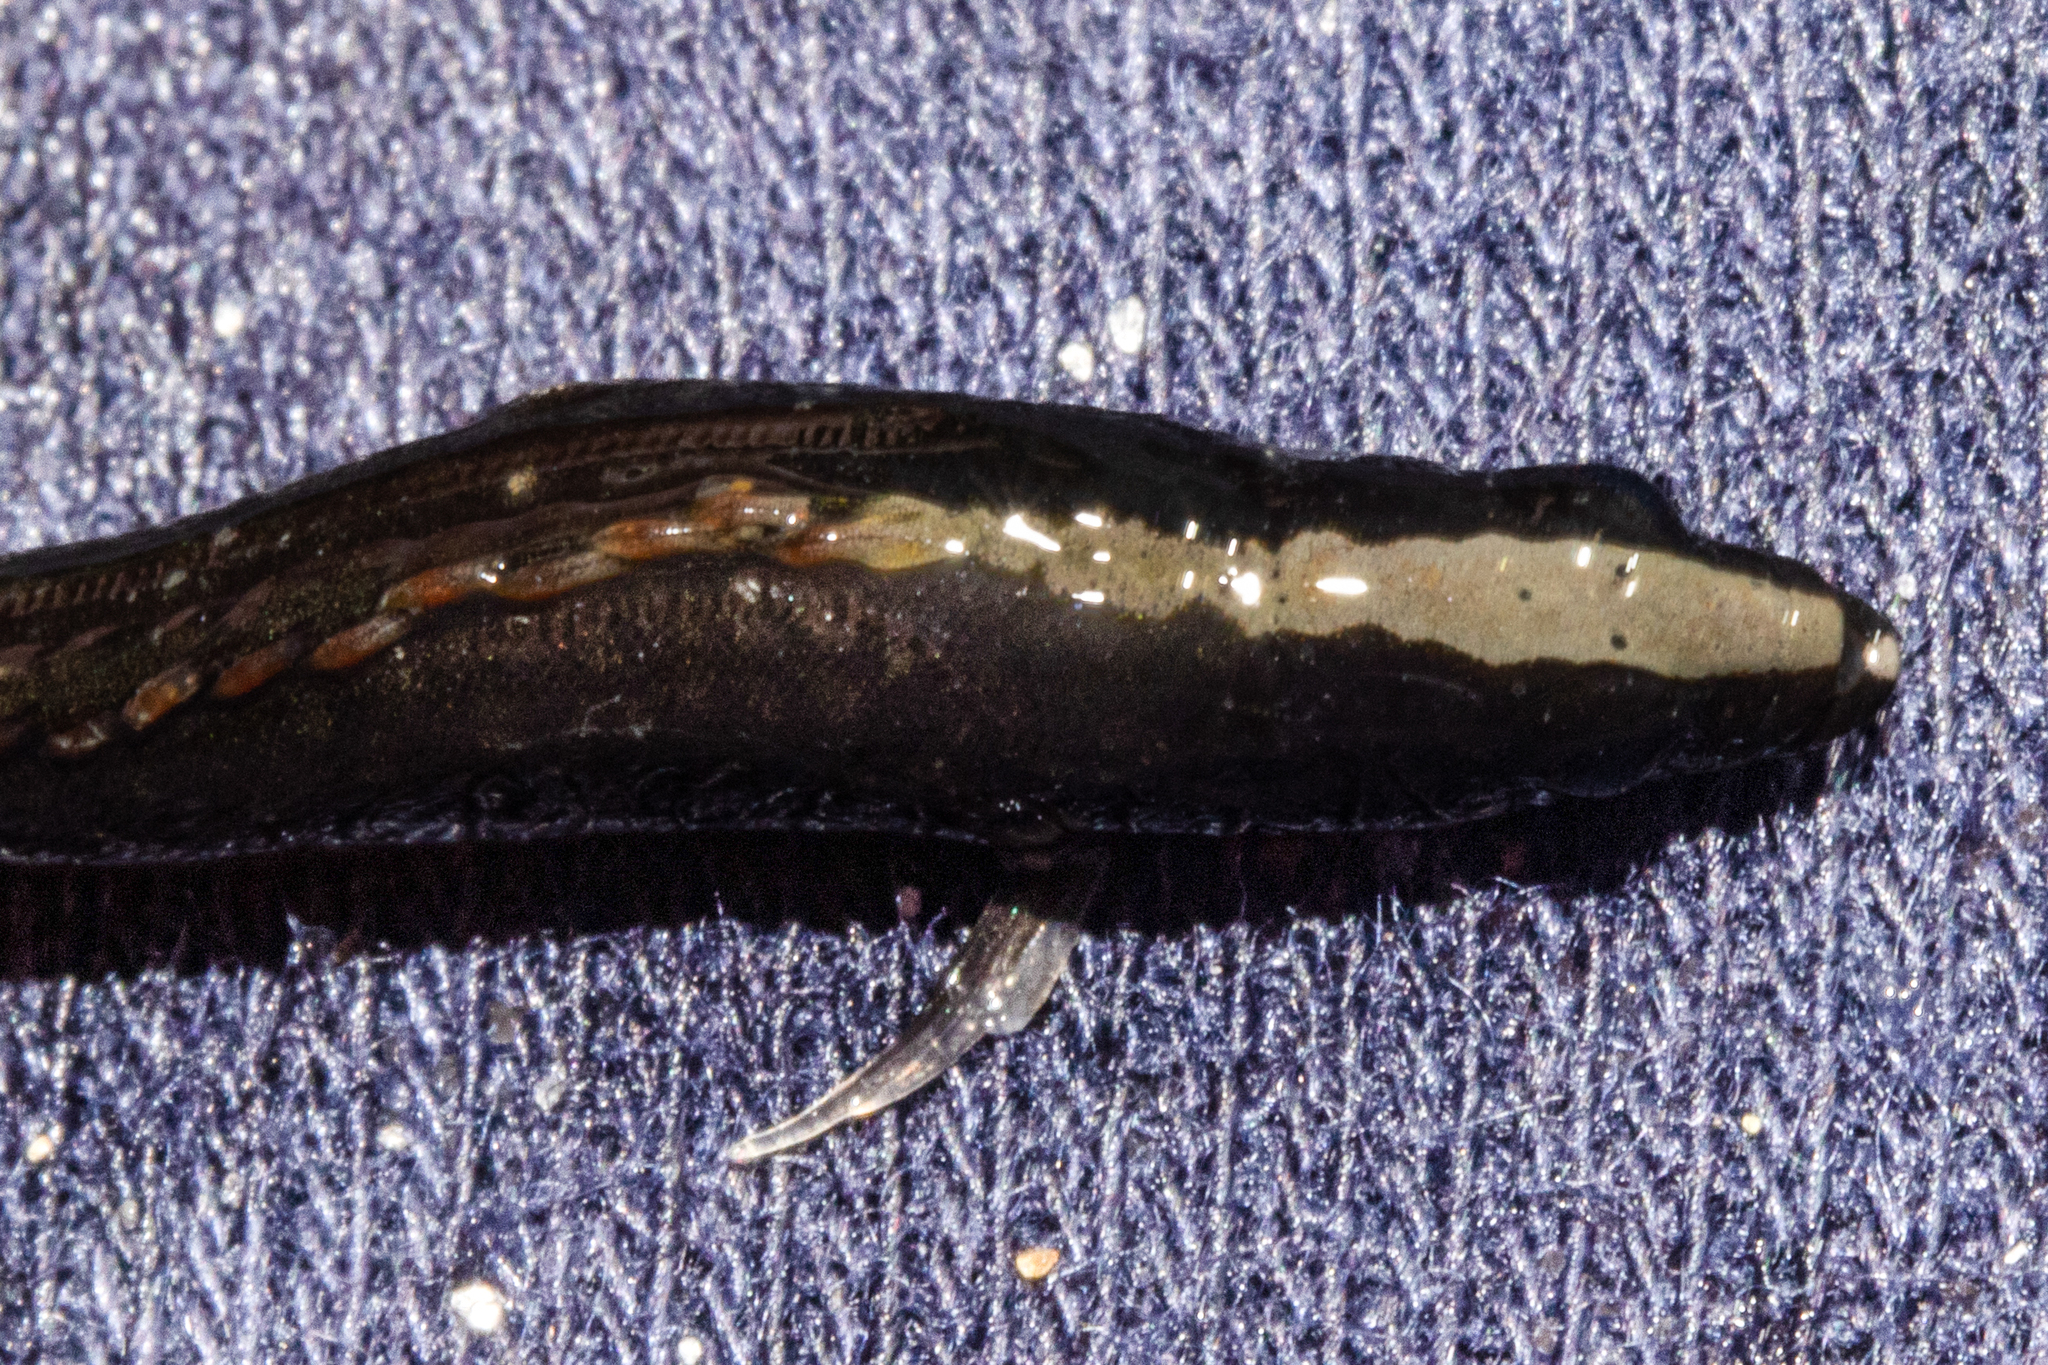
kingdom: Animalia
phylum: Chordata
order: Perciformes
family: Plesiopidae
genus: Acanthoclinus
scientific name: Acanthoclinus fuscus
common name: Olive rockfish
